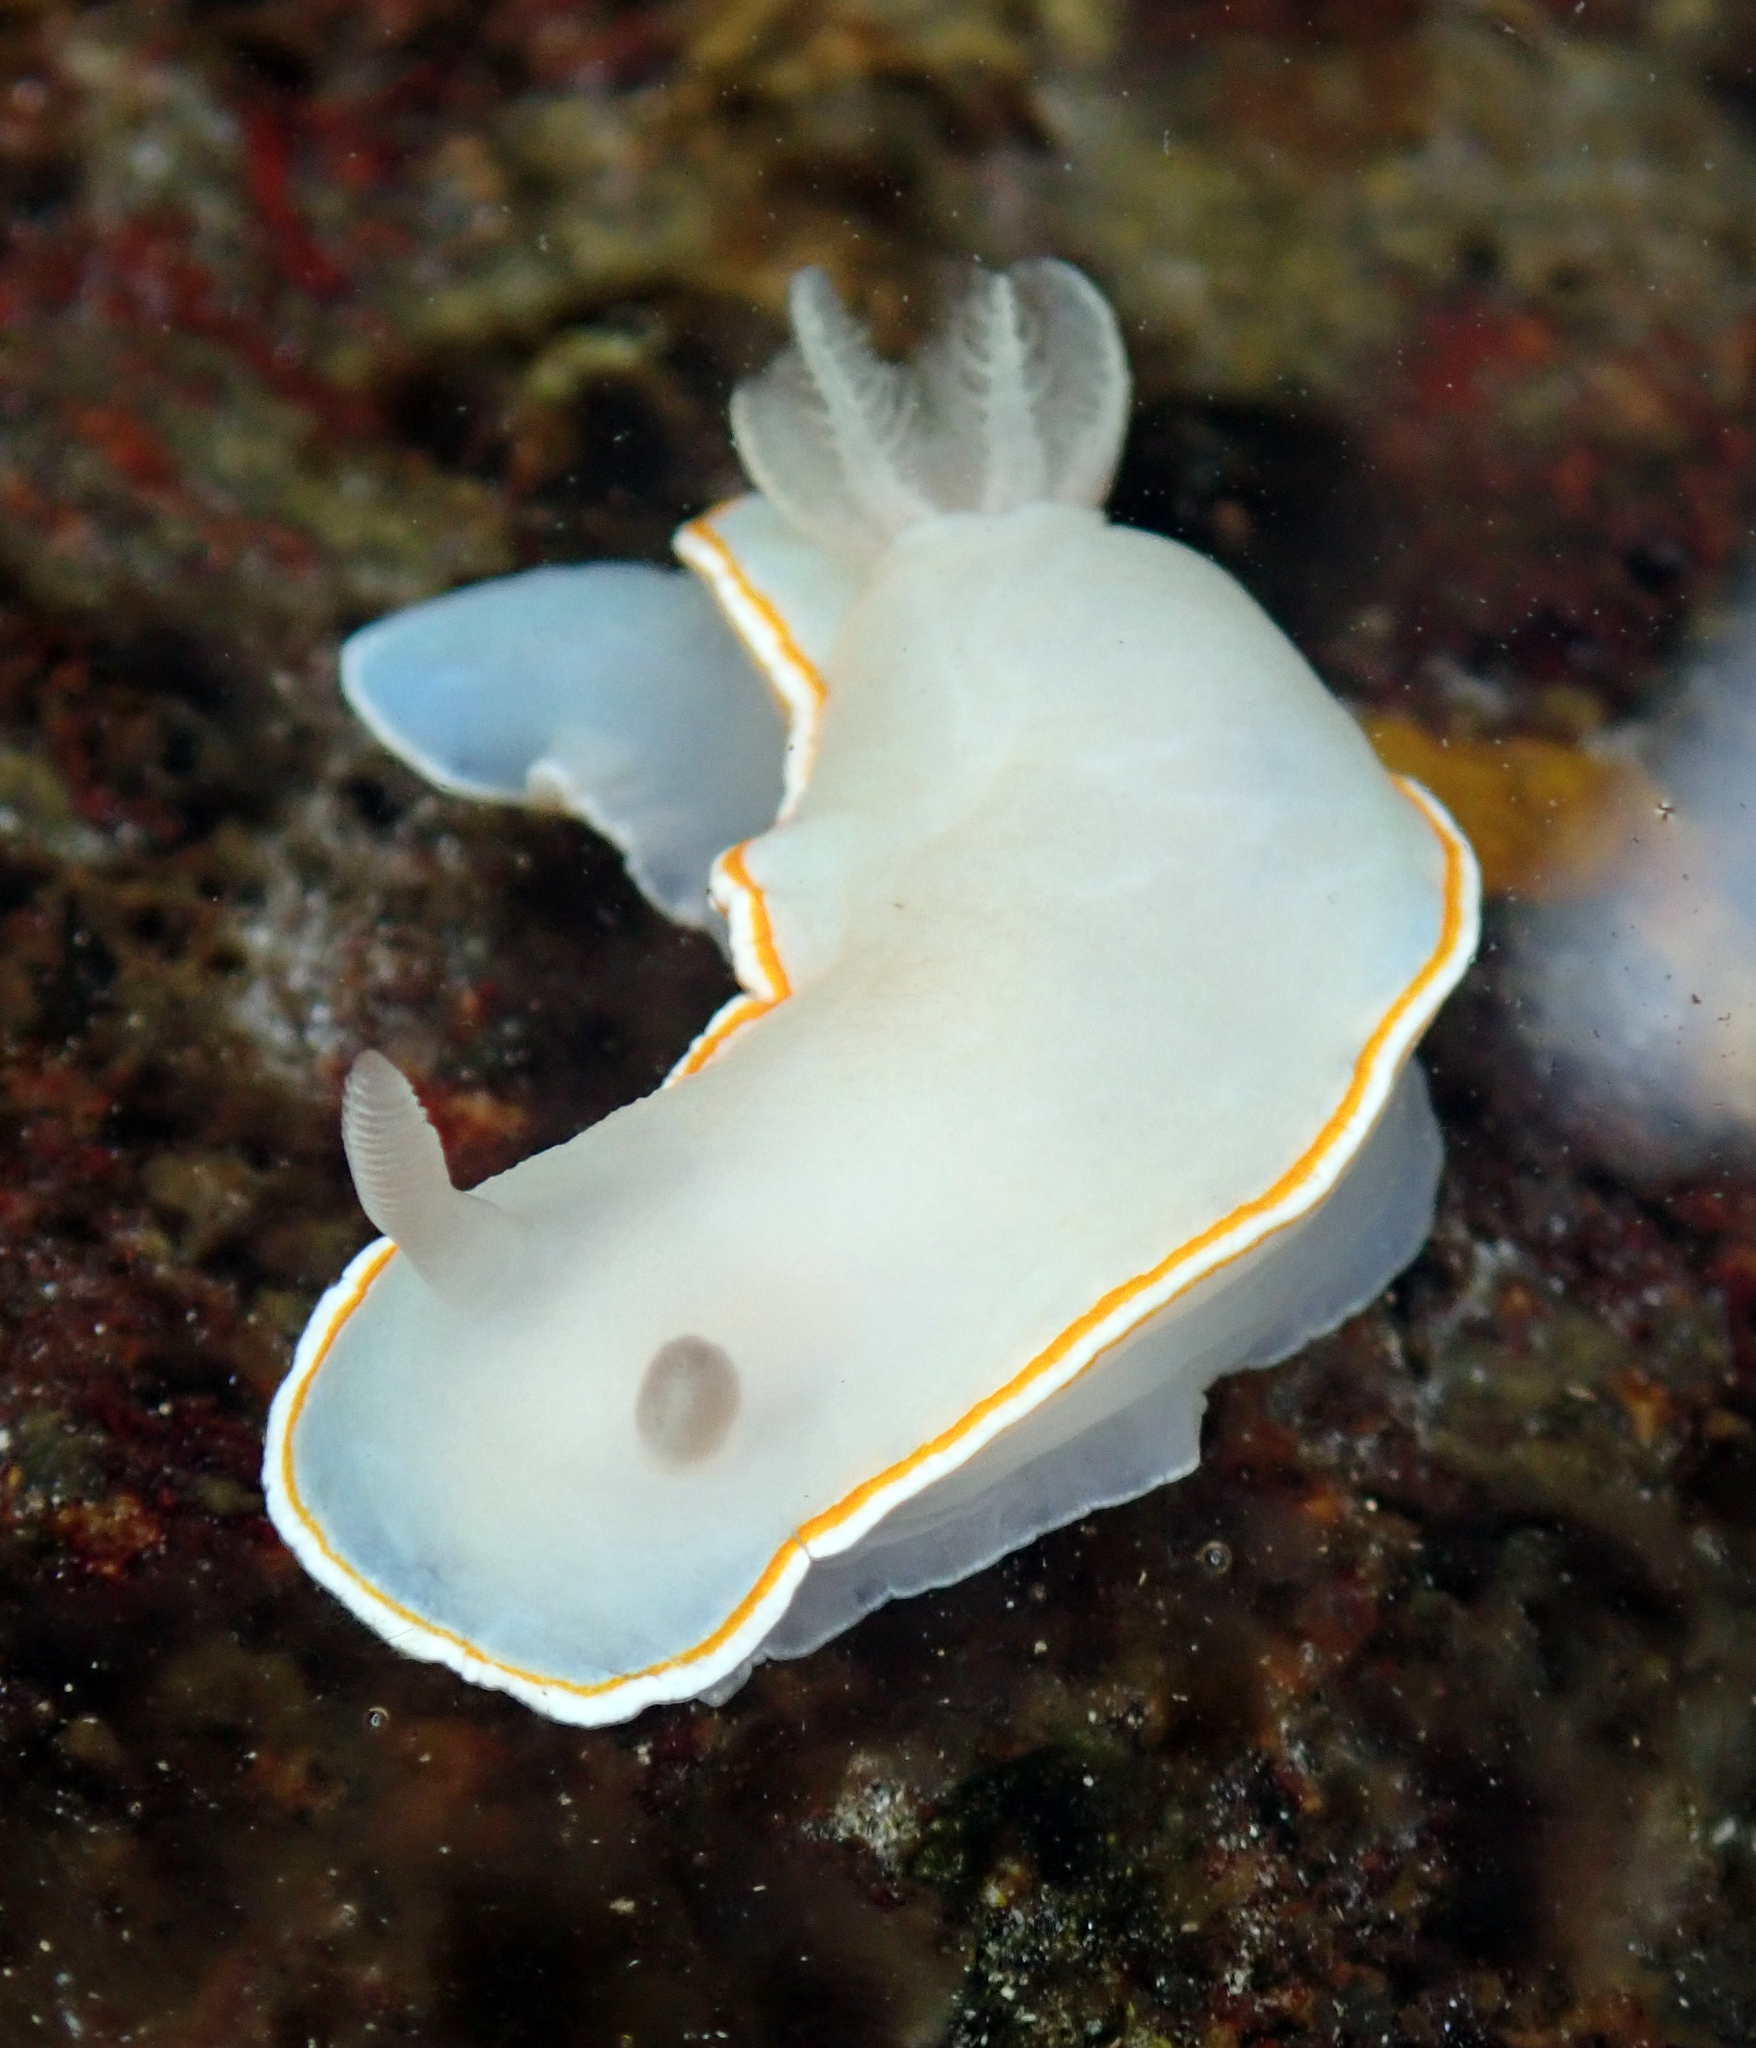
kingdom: Animalia
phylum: Mollusca
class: Gastropoda
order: Nudibranchia
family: Chromodorididae
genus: Goniobranchus
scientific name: Goniobranchus aureomarginatus
